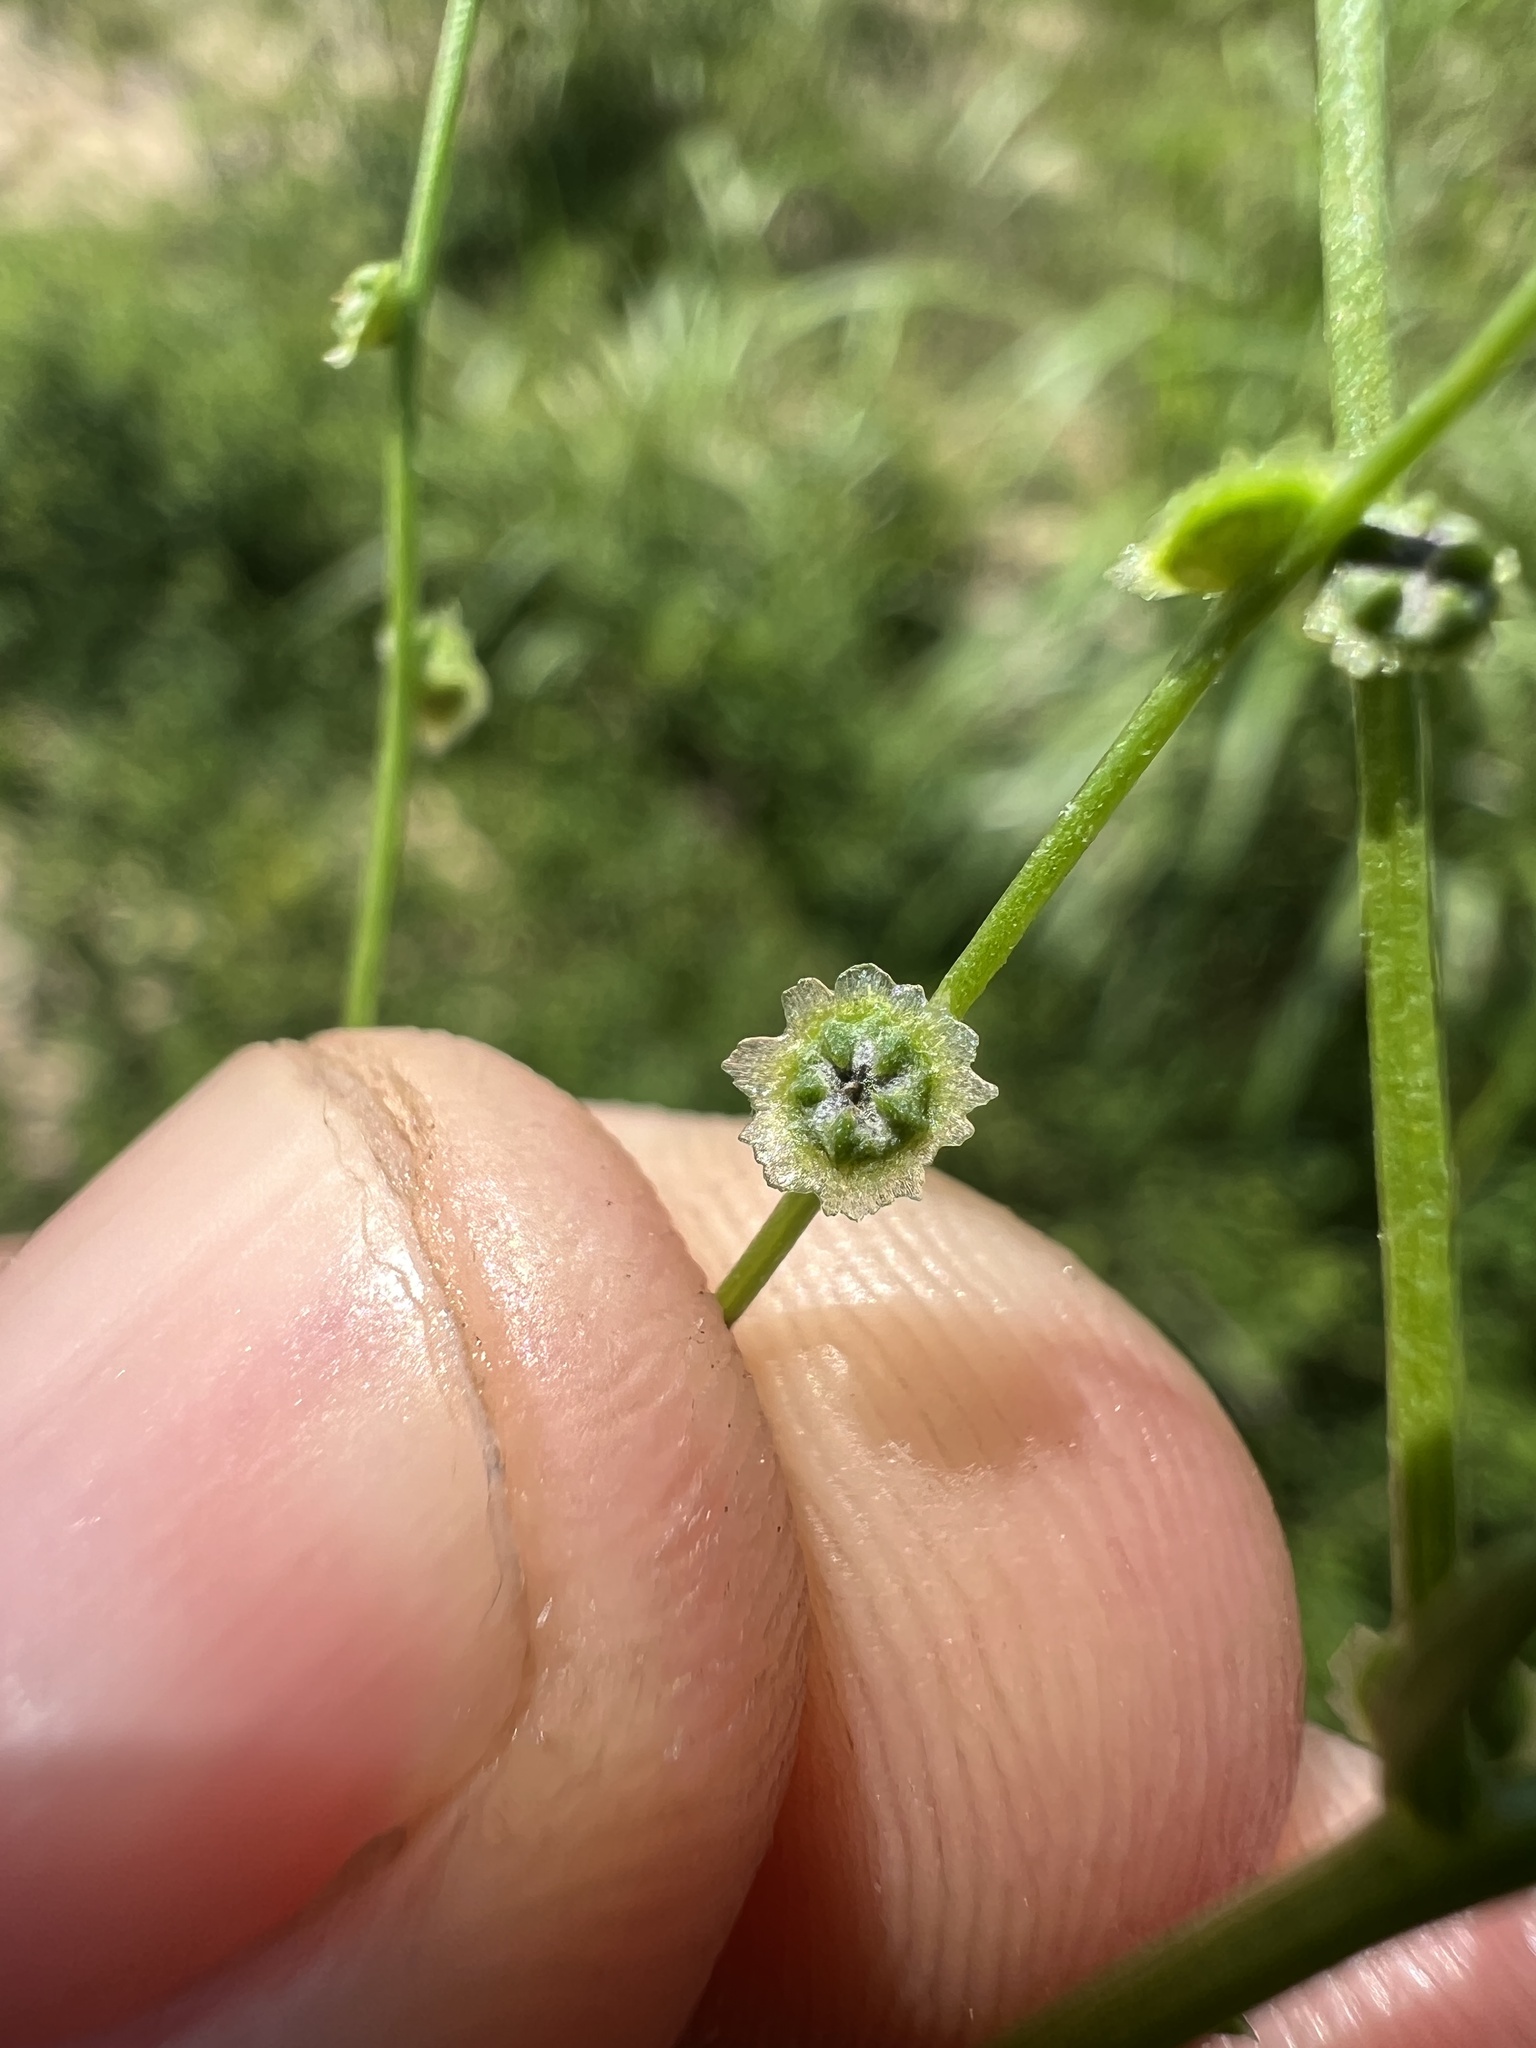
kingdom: Plantae
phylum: Tracheophyta
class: Magnoliopsida
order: Caryophyllales
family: Amaranthaceae
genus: Dysphania
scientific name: Dysphania atriplicifolia
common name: Plains tumbleweed
